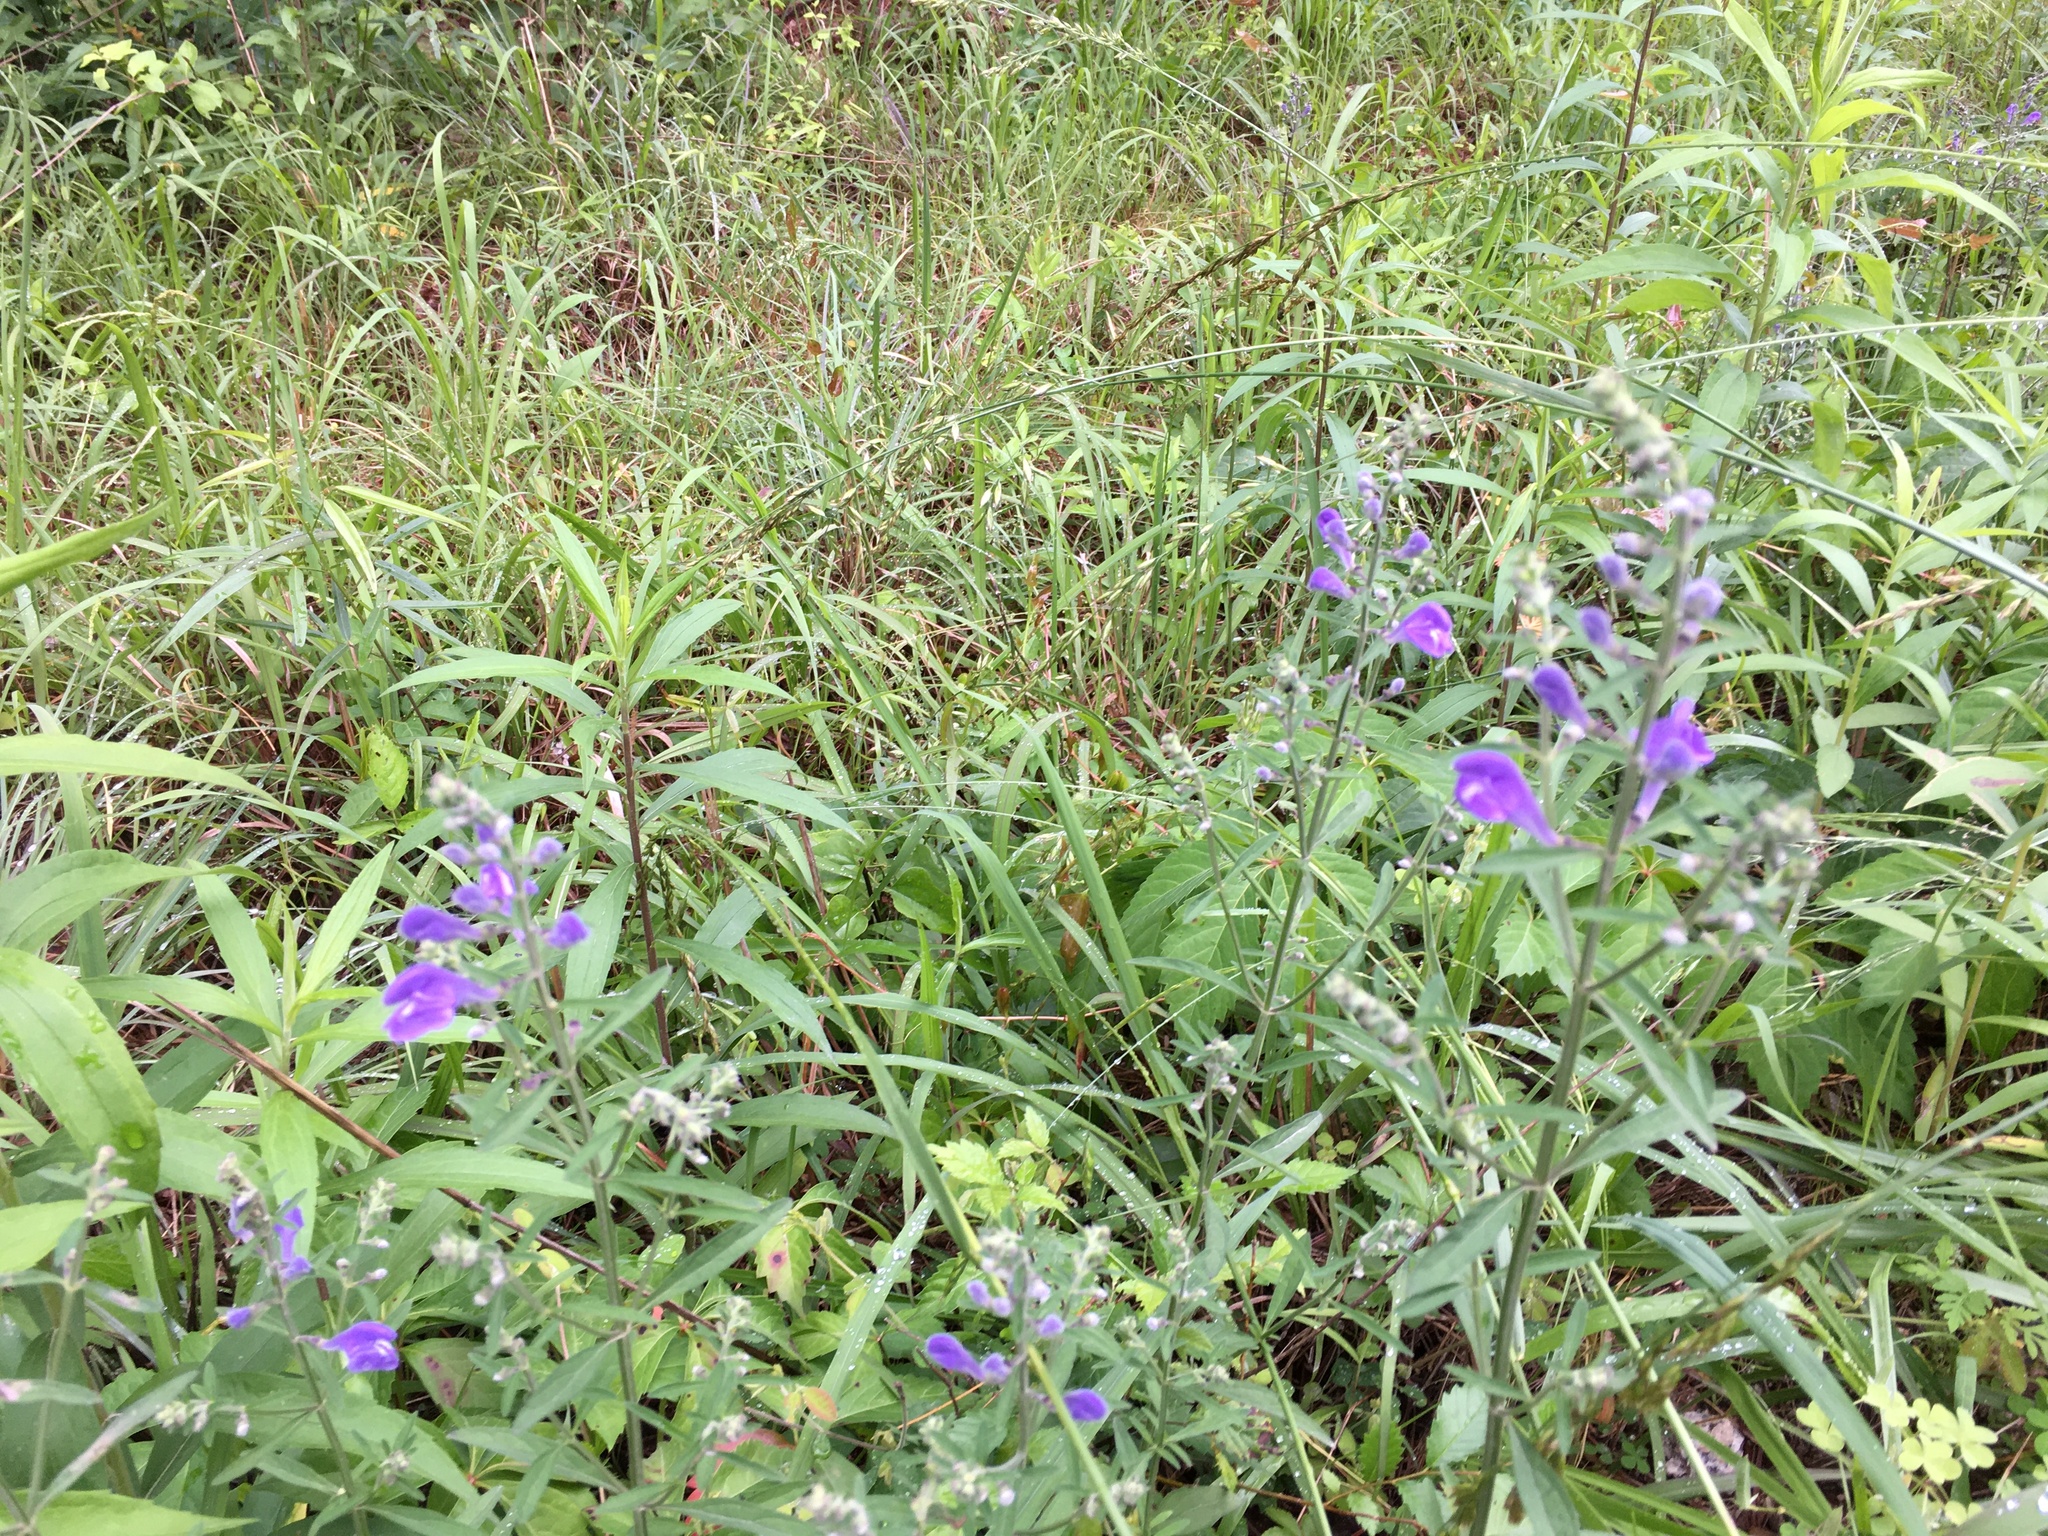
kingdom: Plantae
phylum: Tracheophyta
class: Magnoliopsida
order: Lamiales
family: Lamiaceae
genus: Scutellaria
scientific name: Scutellaria integrifolia
